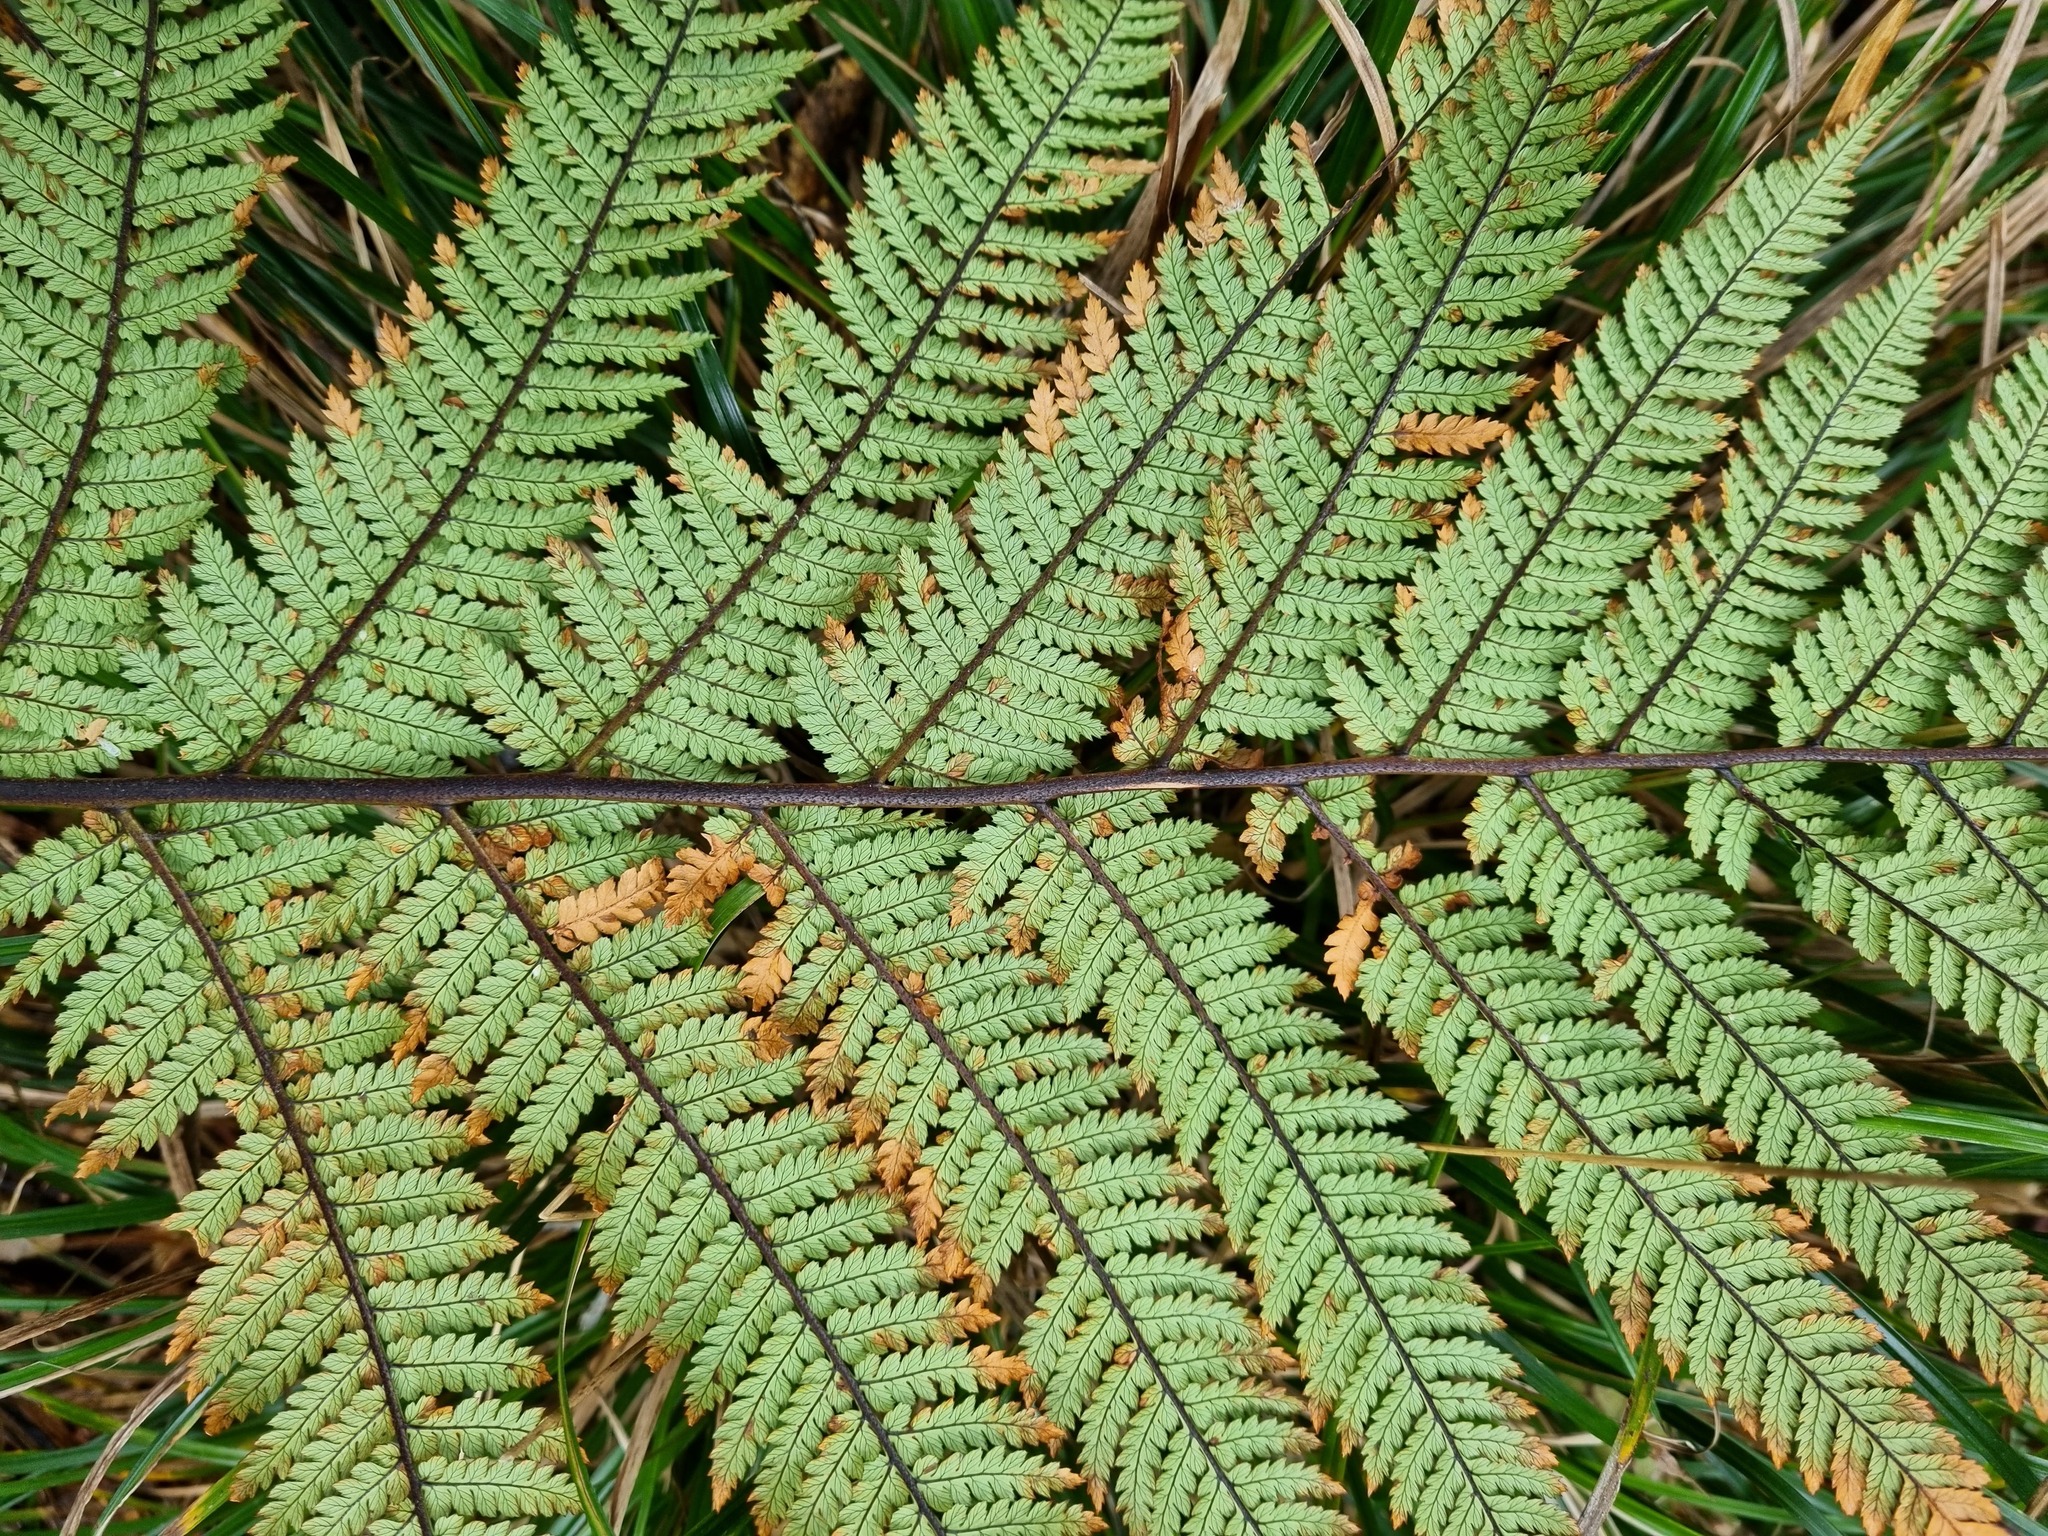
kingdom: Plantae
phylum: Tracheophyta
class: Polypodiopsida
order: Cyatheales
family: Dicksoniaceae
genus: Dicksonia
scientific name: Dicksonia squarrosa
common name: Hard treefern
